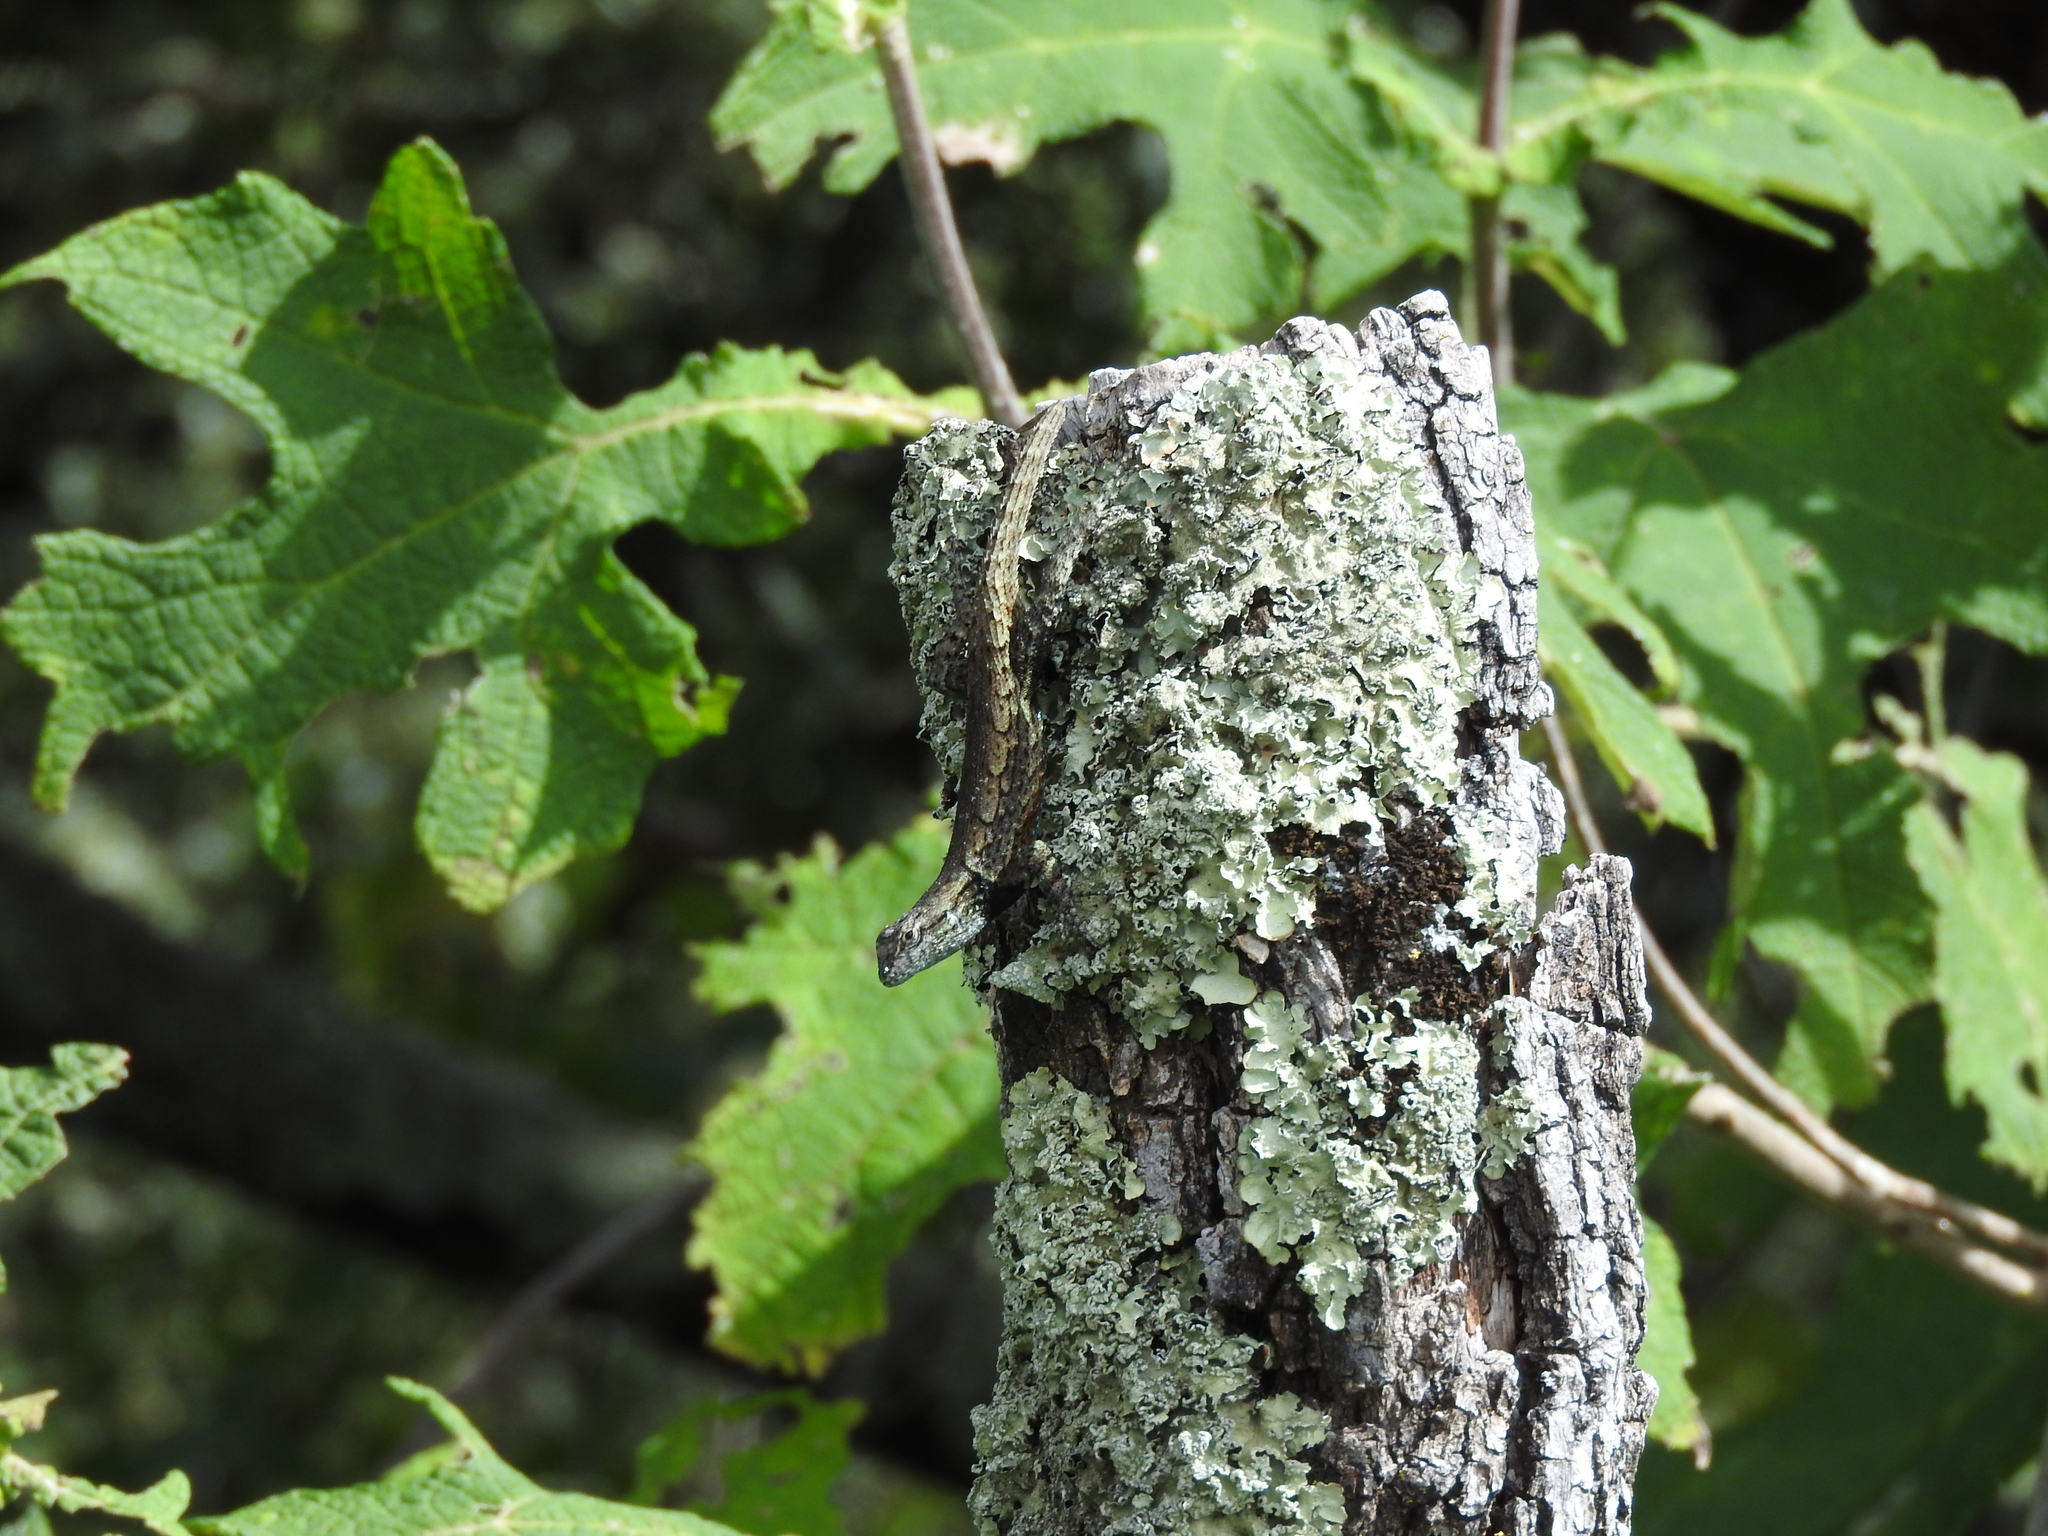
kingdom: Animalia
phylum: Chordata
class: Squamata
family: Phrynosomatidae
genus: Sceloporus
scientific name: Sceloporus grammicus
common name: Mesquite lizard
